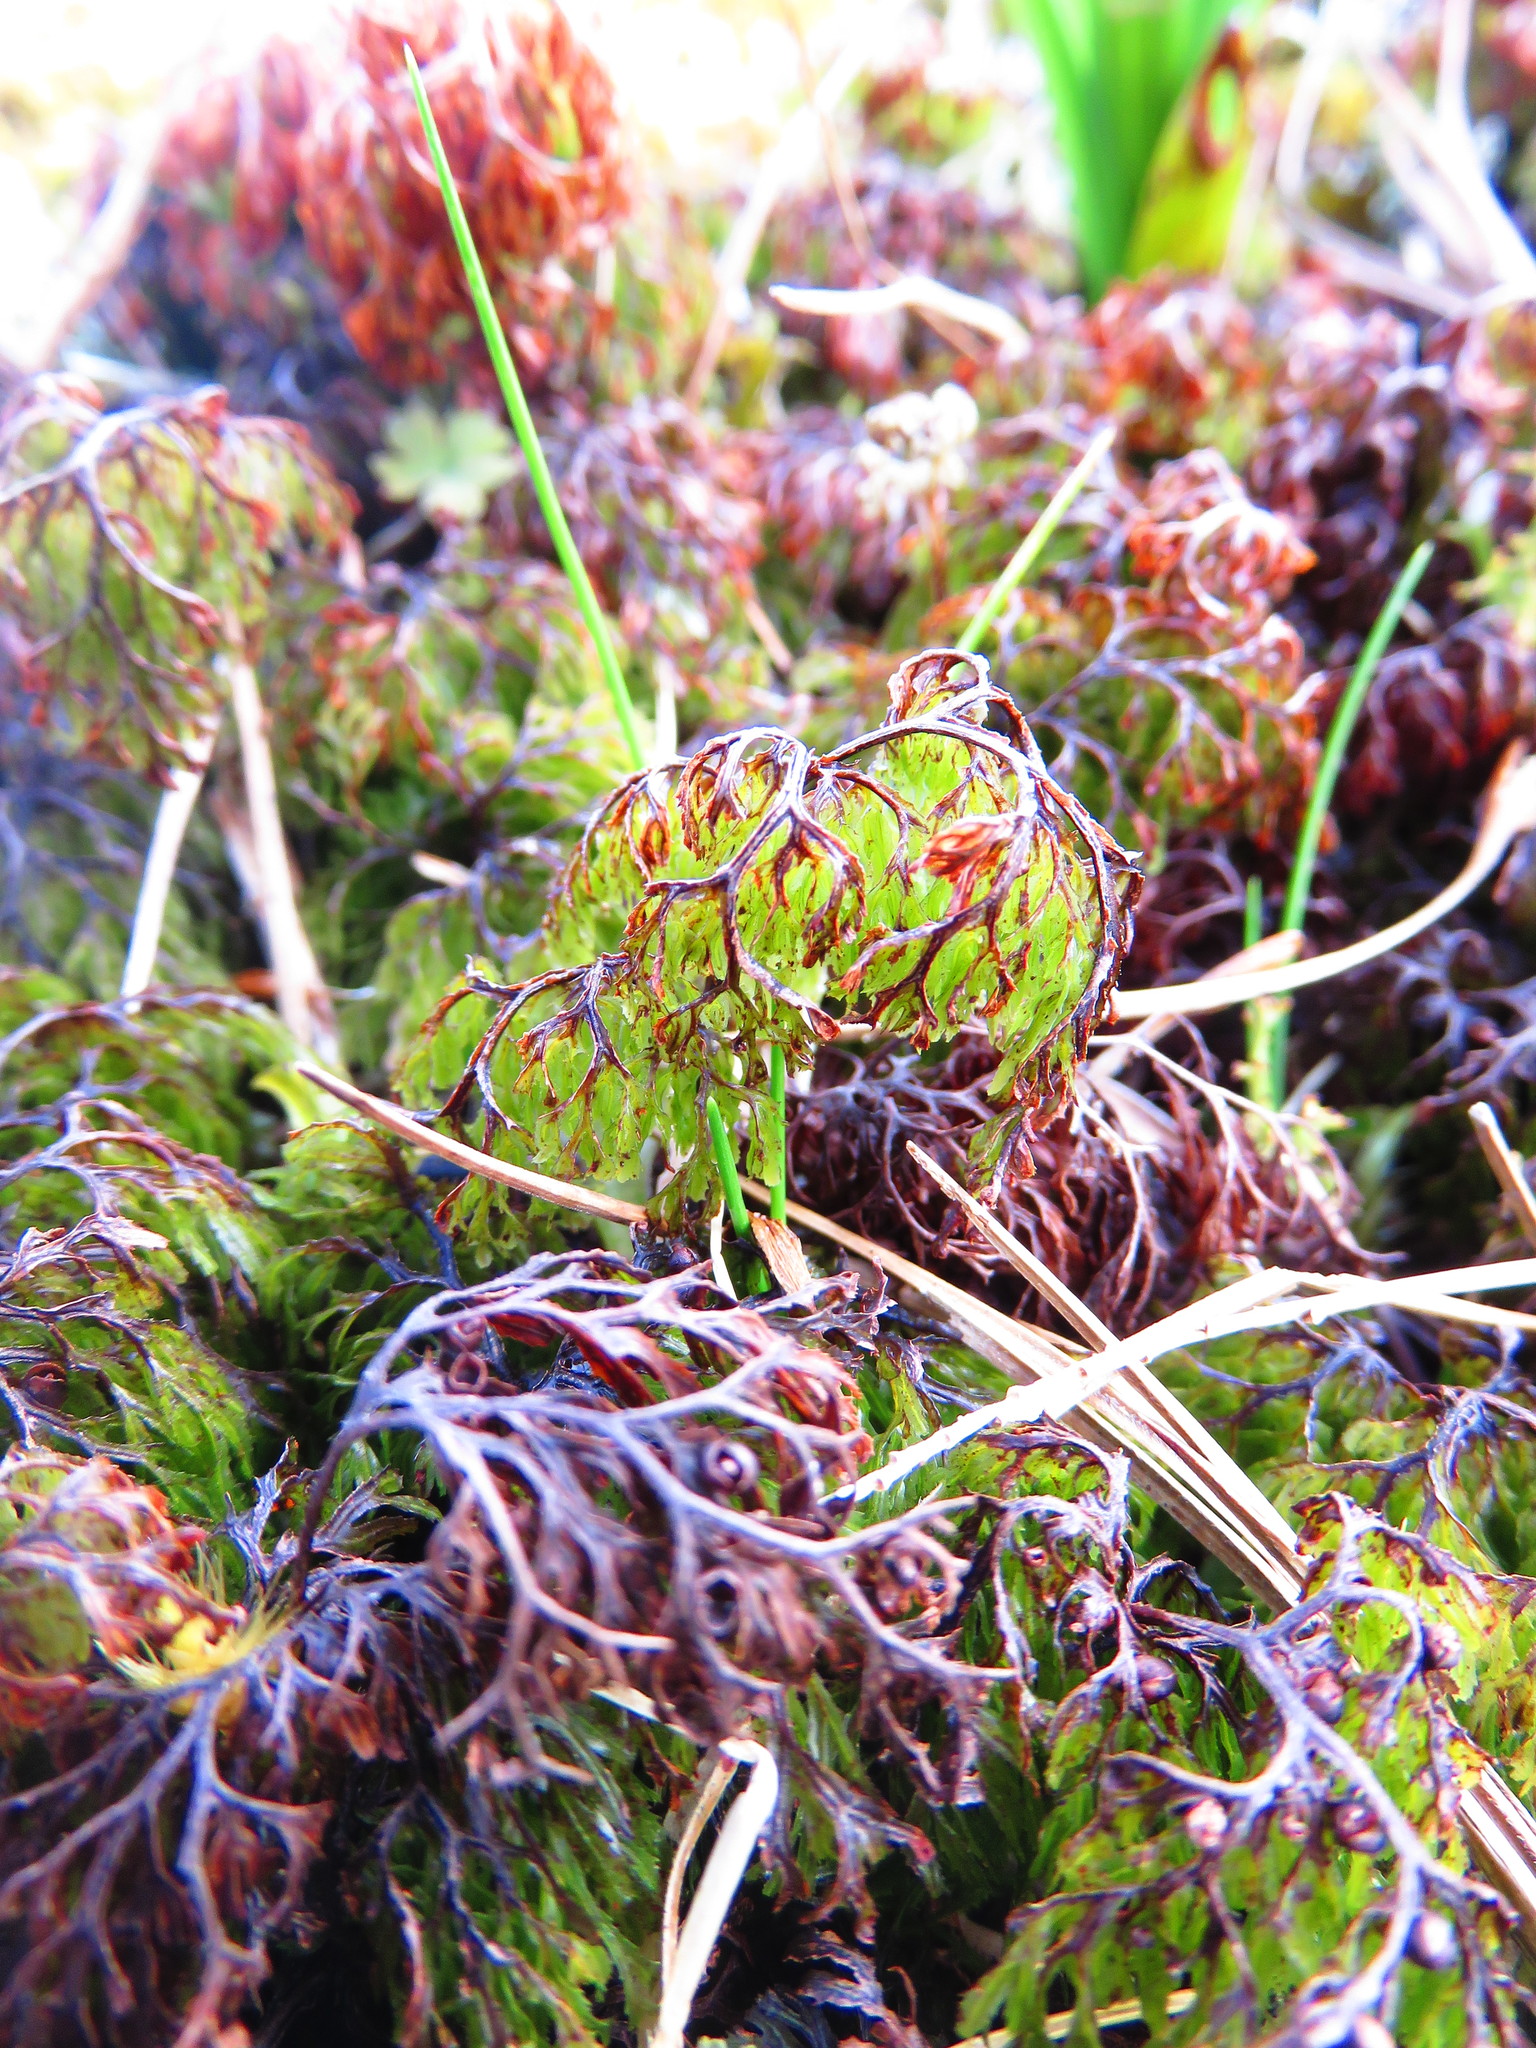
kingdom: Plantae
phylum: Tracheophyta
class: Polypodiopsida
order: Hymenophyllales
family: Hymenophyllaceae
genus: Hymenophyllum
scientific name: Hymenophyllum multifidum
